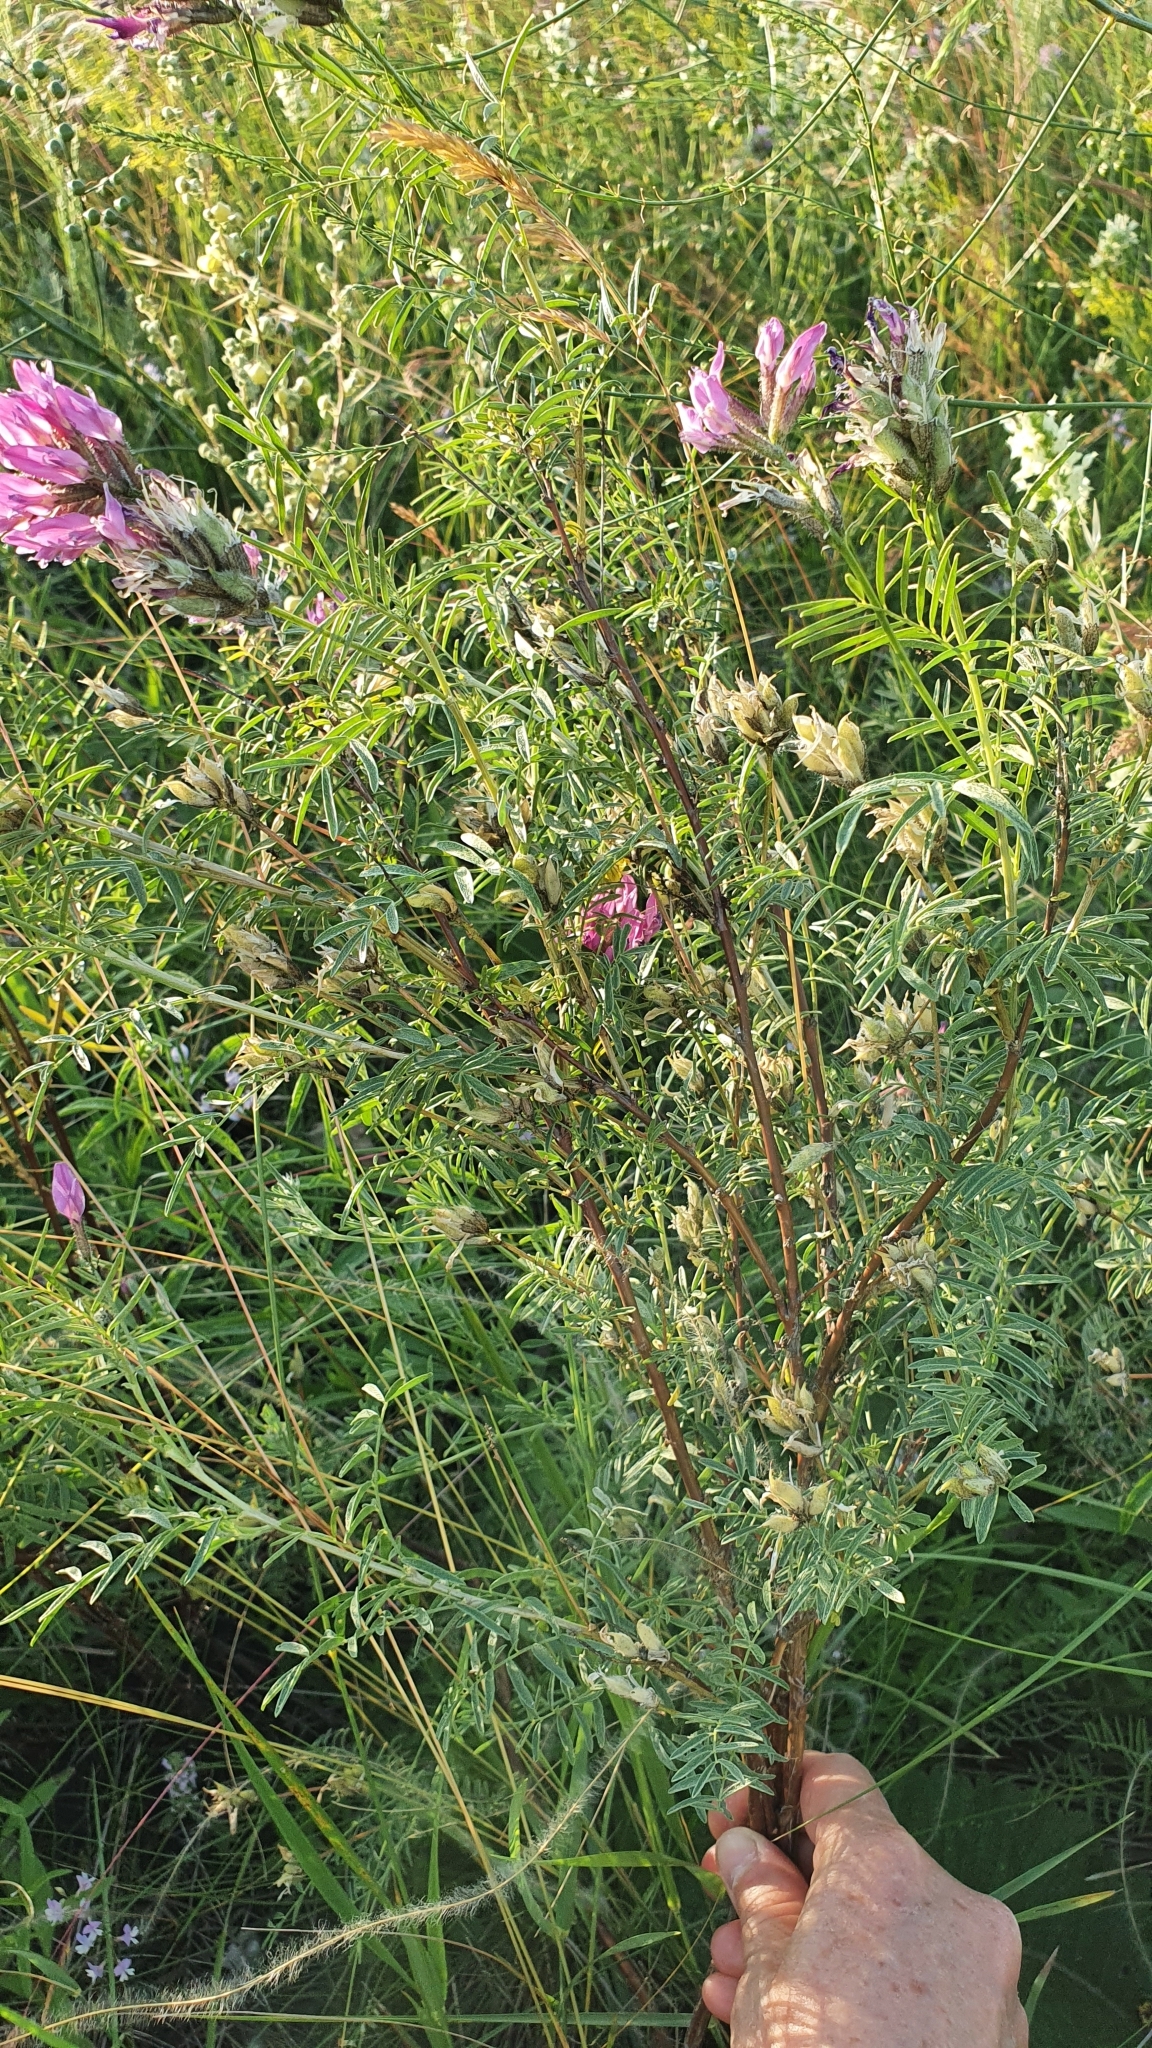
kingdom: Plantae
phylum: Tracheophyta
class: Magnoliopsida
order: Fabales
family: Fabaceae
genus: Astragalus
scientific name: Astragalus cornutus
